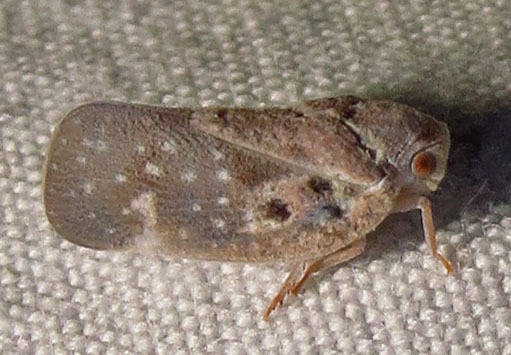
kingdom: Animalia
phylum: Arthropoda
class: Insecta
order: Hemiptera
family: Flatidae
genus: Metcalfa
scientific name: Metcalfa pruinosa
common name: Citrus flatid planthopper
